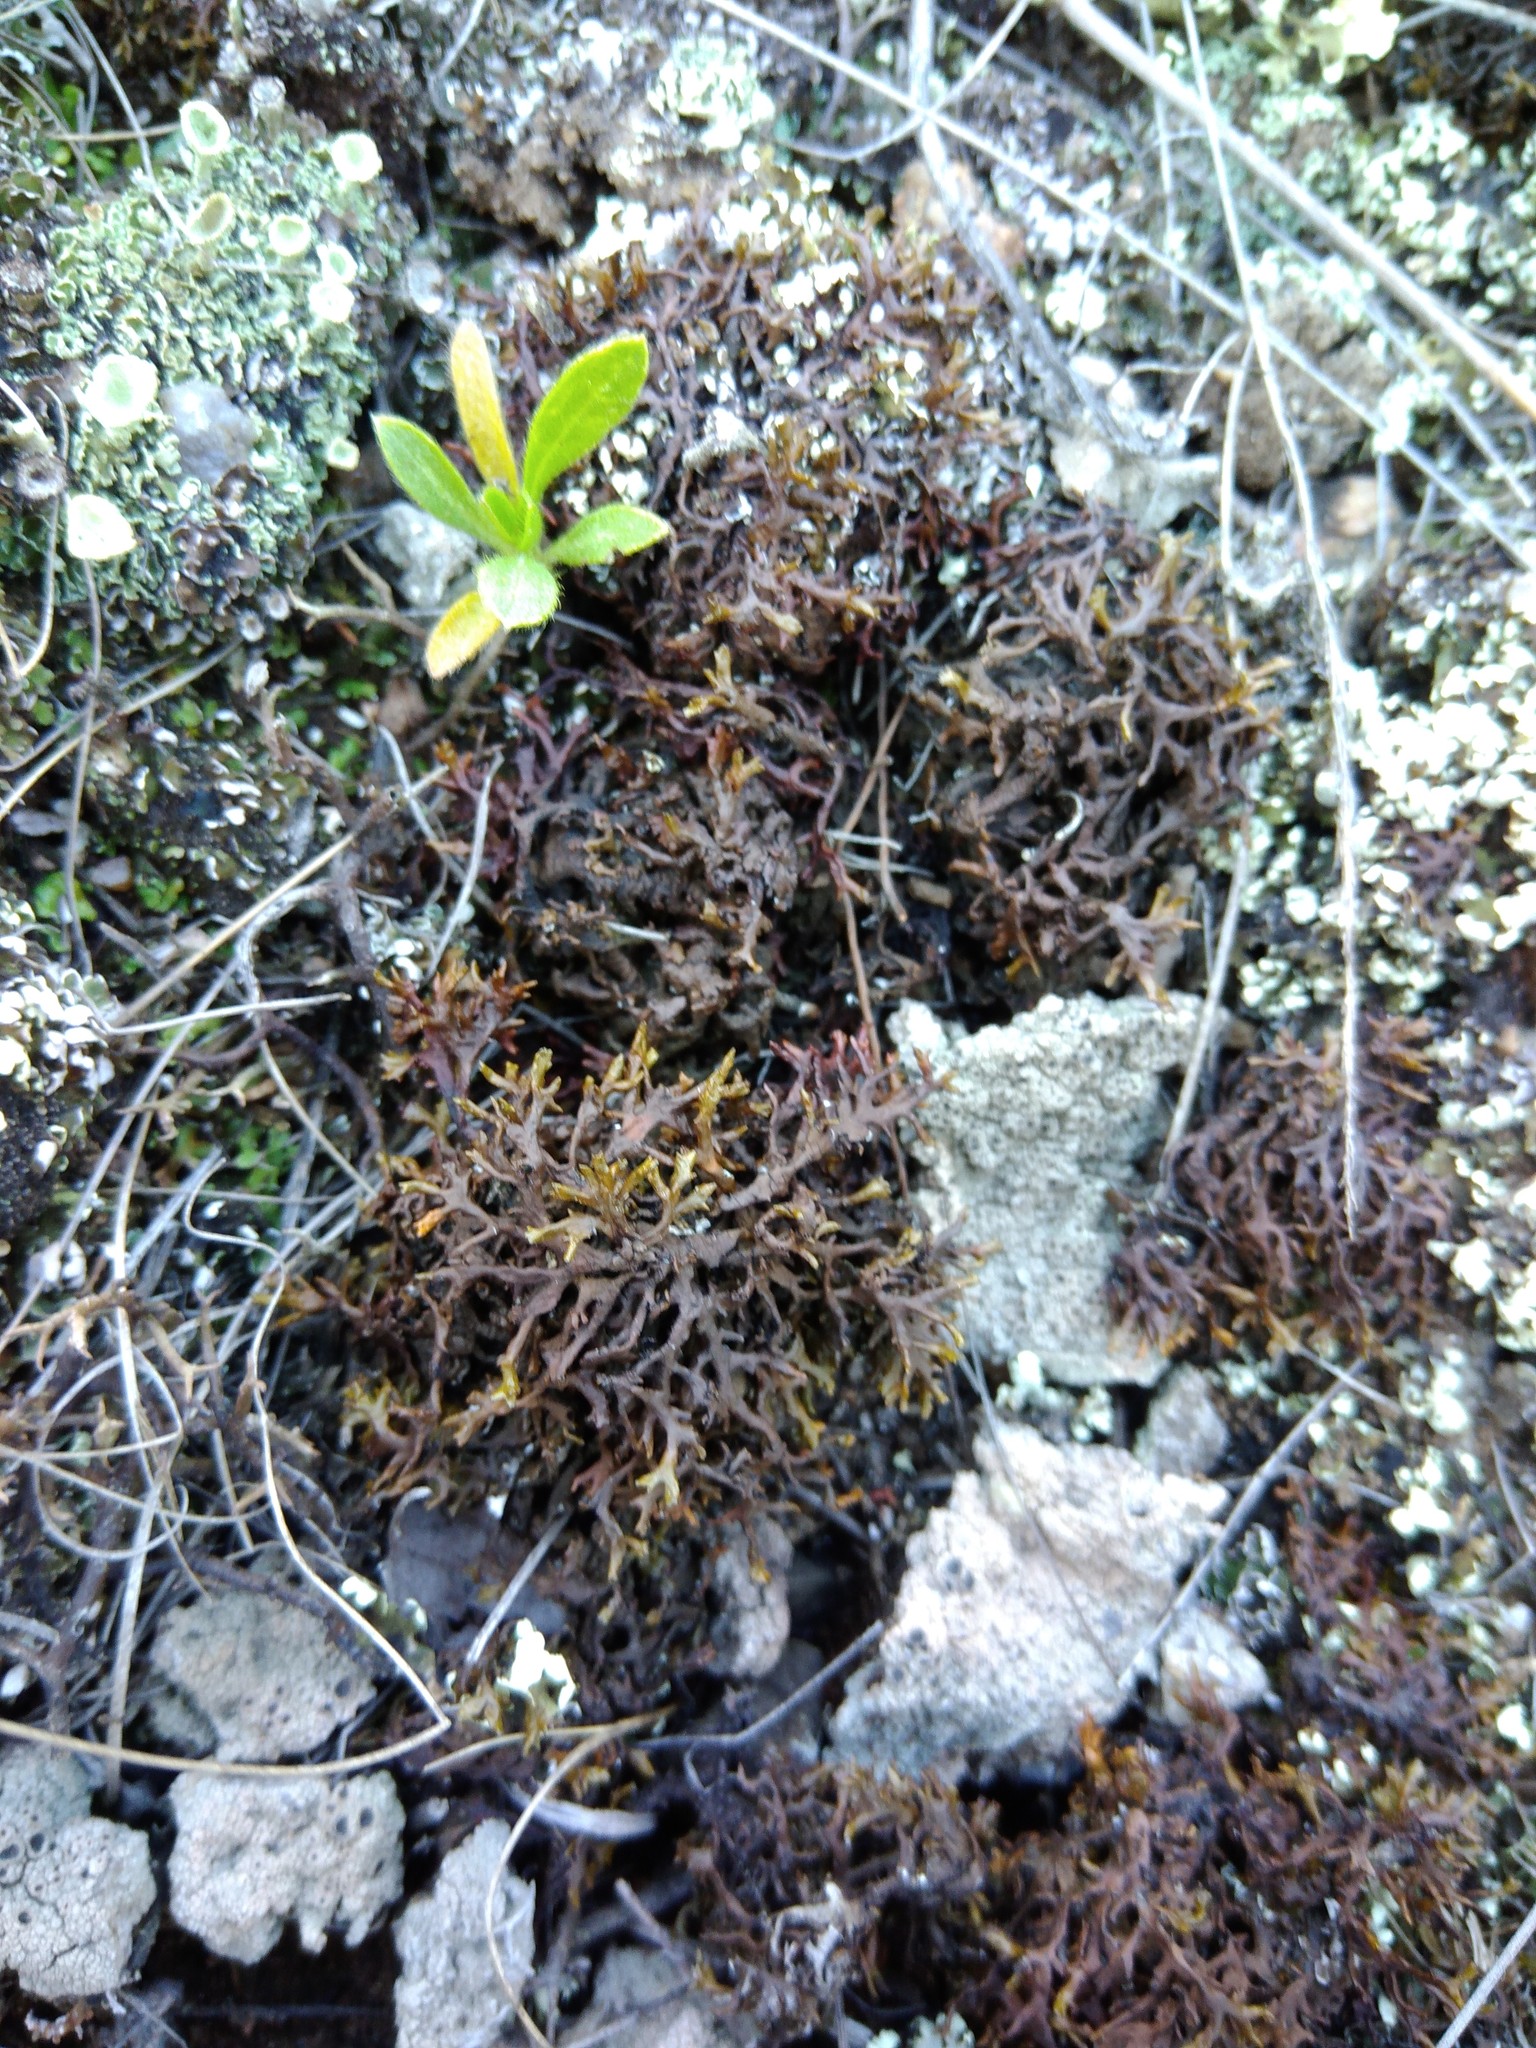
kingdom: Fungi
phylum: Ascomycota
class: Lecanoromycetes
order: Lecanorales
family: Parmeliaceae
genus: Xanthoparmelia
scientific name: Xanthoparmelia pokornyi
